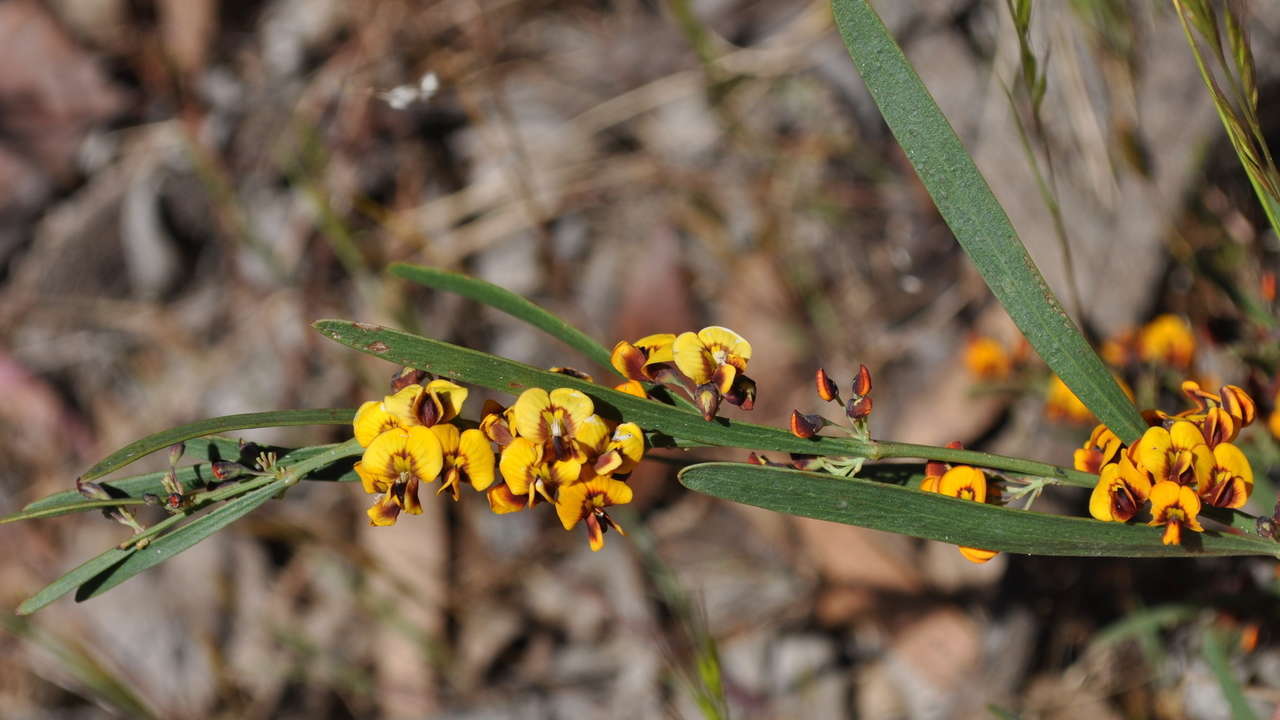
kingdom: Plantae
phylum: Tracheophyta
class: Magnoliopsida
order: Fabales
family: Fabaceae
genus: Daviesia
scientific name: Daviesia leptophylla
